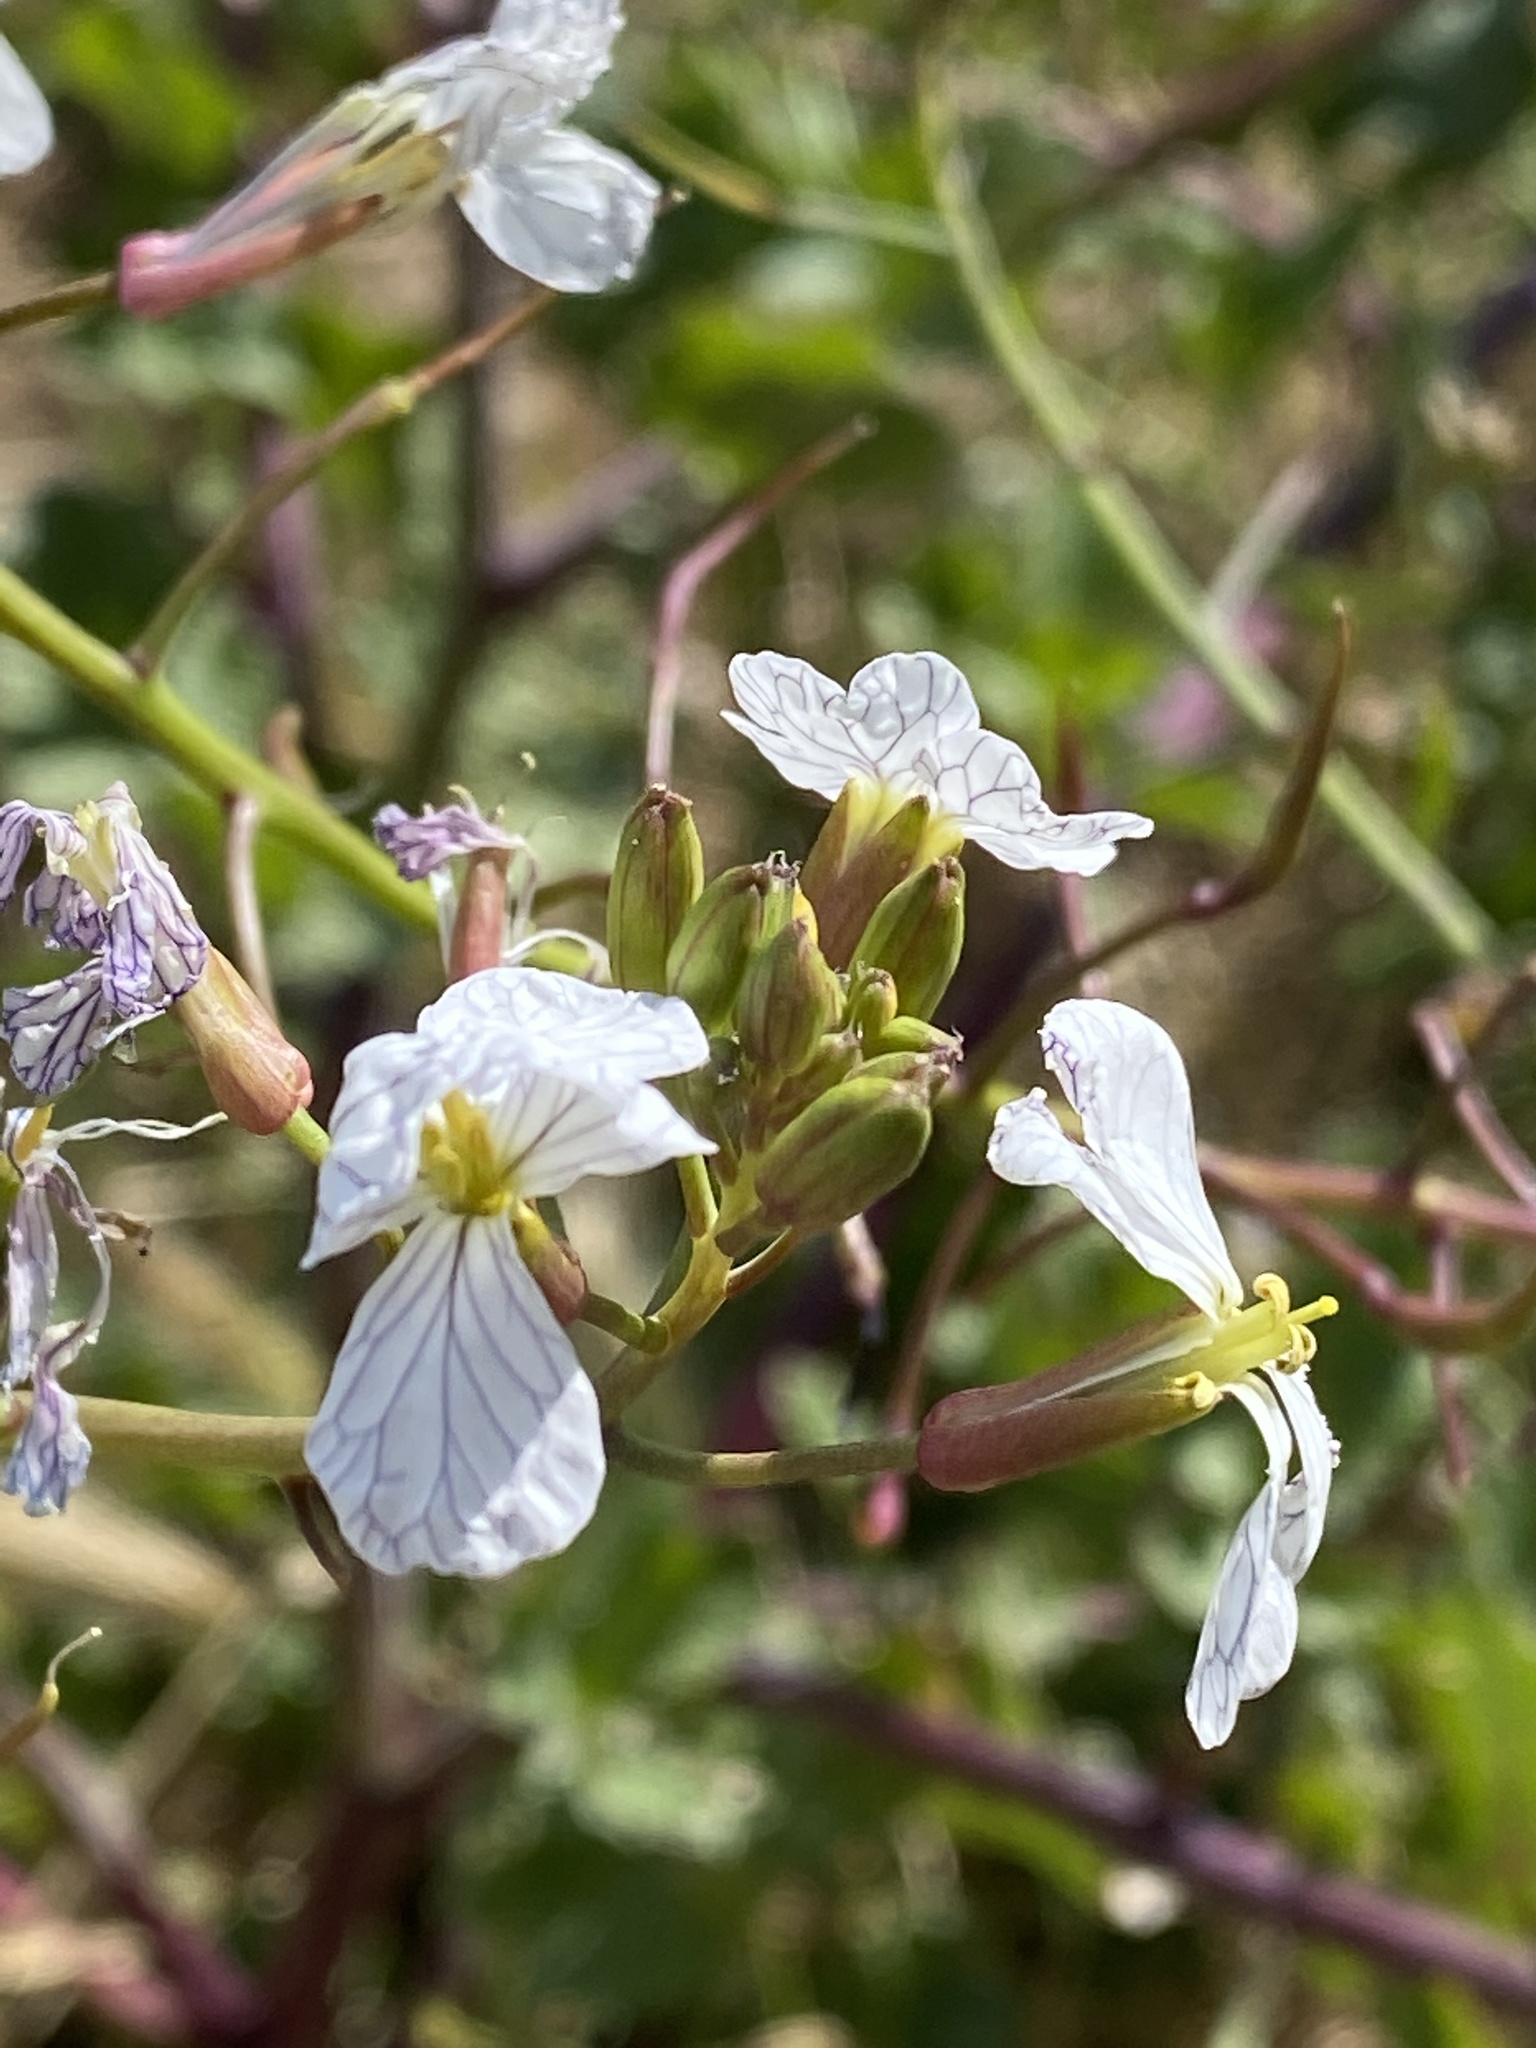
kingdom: Plantae
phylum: Tracheophyta
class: Magnoliopsida
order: Brassicales
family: Brassicaceae
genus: Raphanus
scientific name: Raphanus sativus
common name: Cultivated radish
